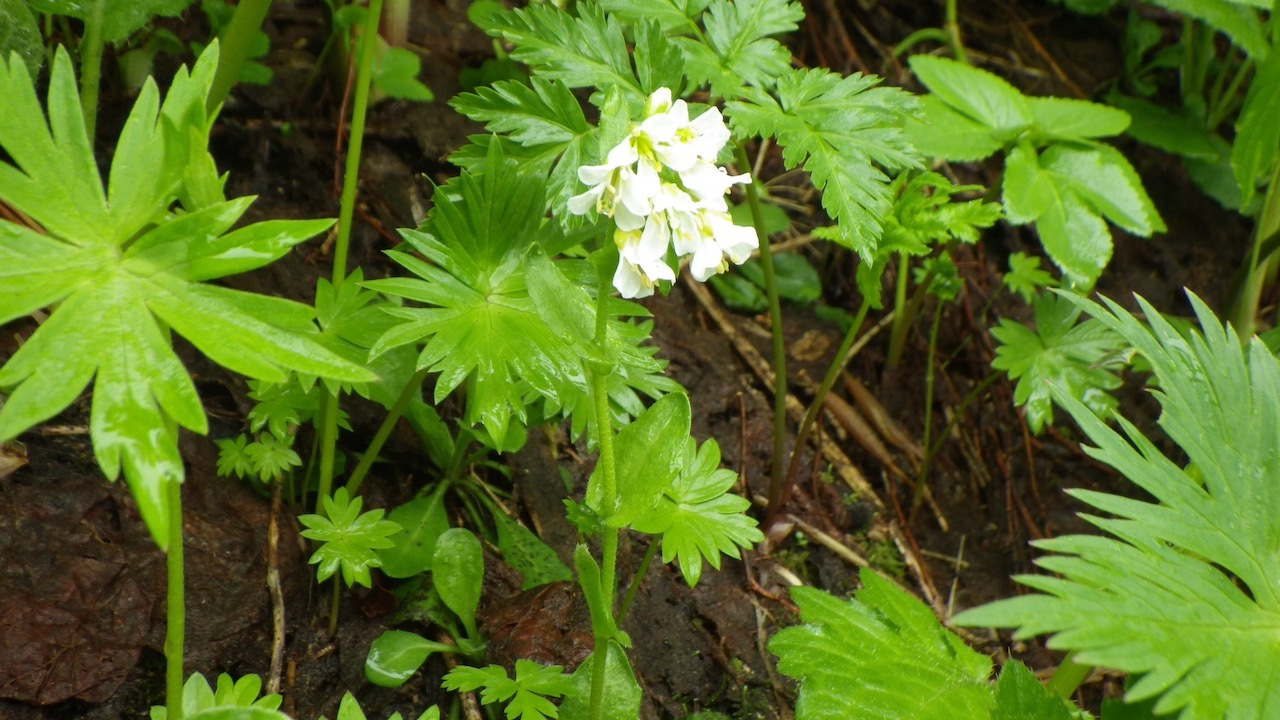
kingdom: Plantae
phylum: Tracheophyta
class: Magnoliopsida
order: Brassicales
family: Brassicaceae
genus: Arabis
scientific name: Arabis serrata
